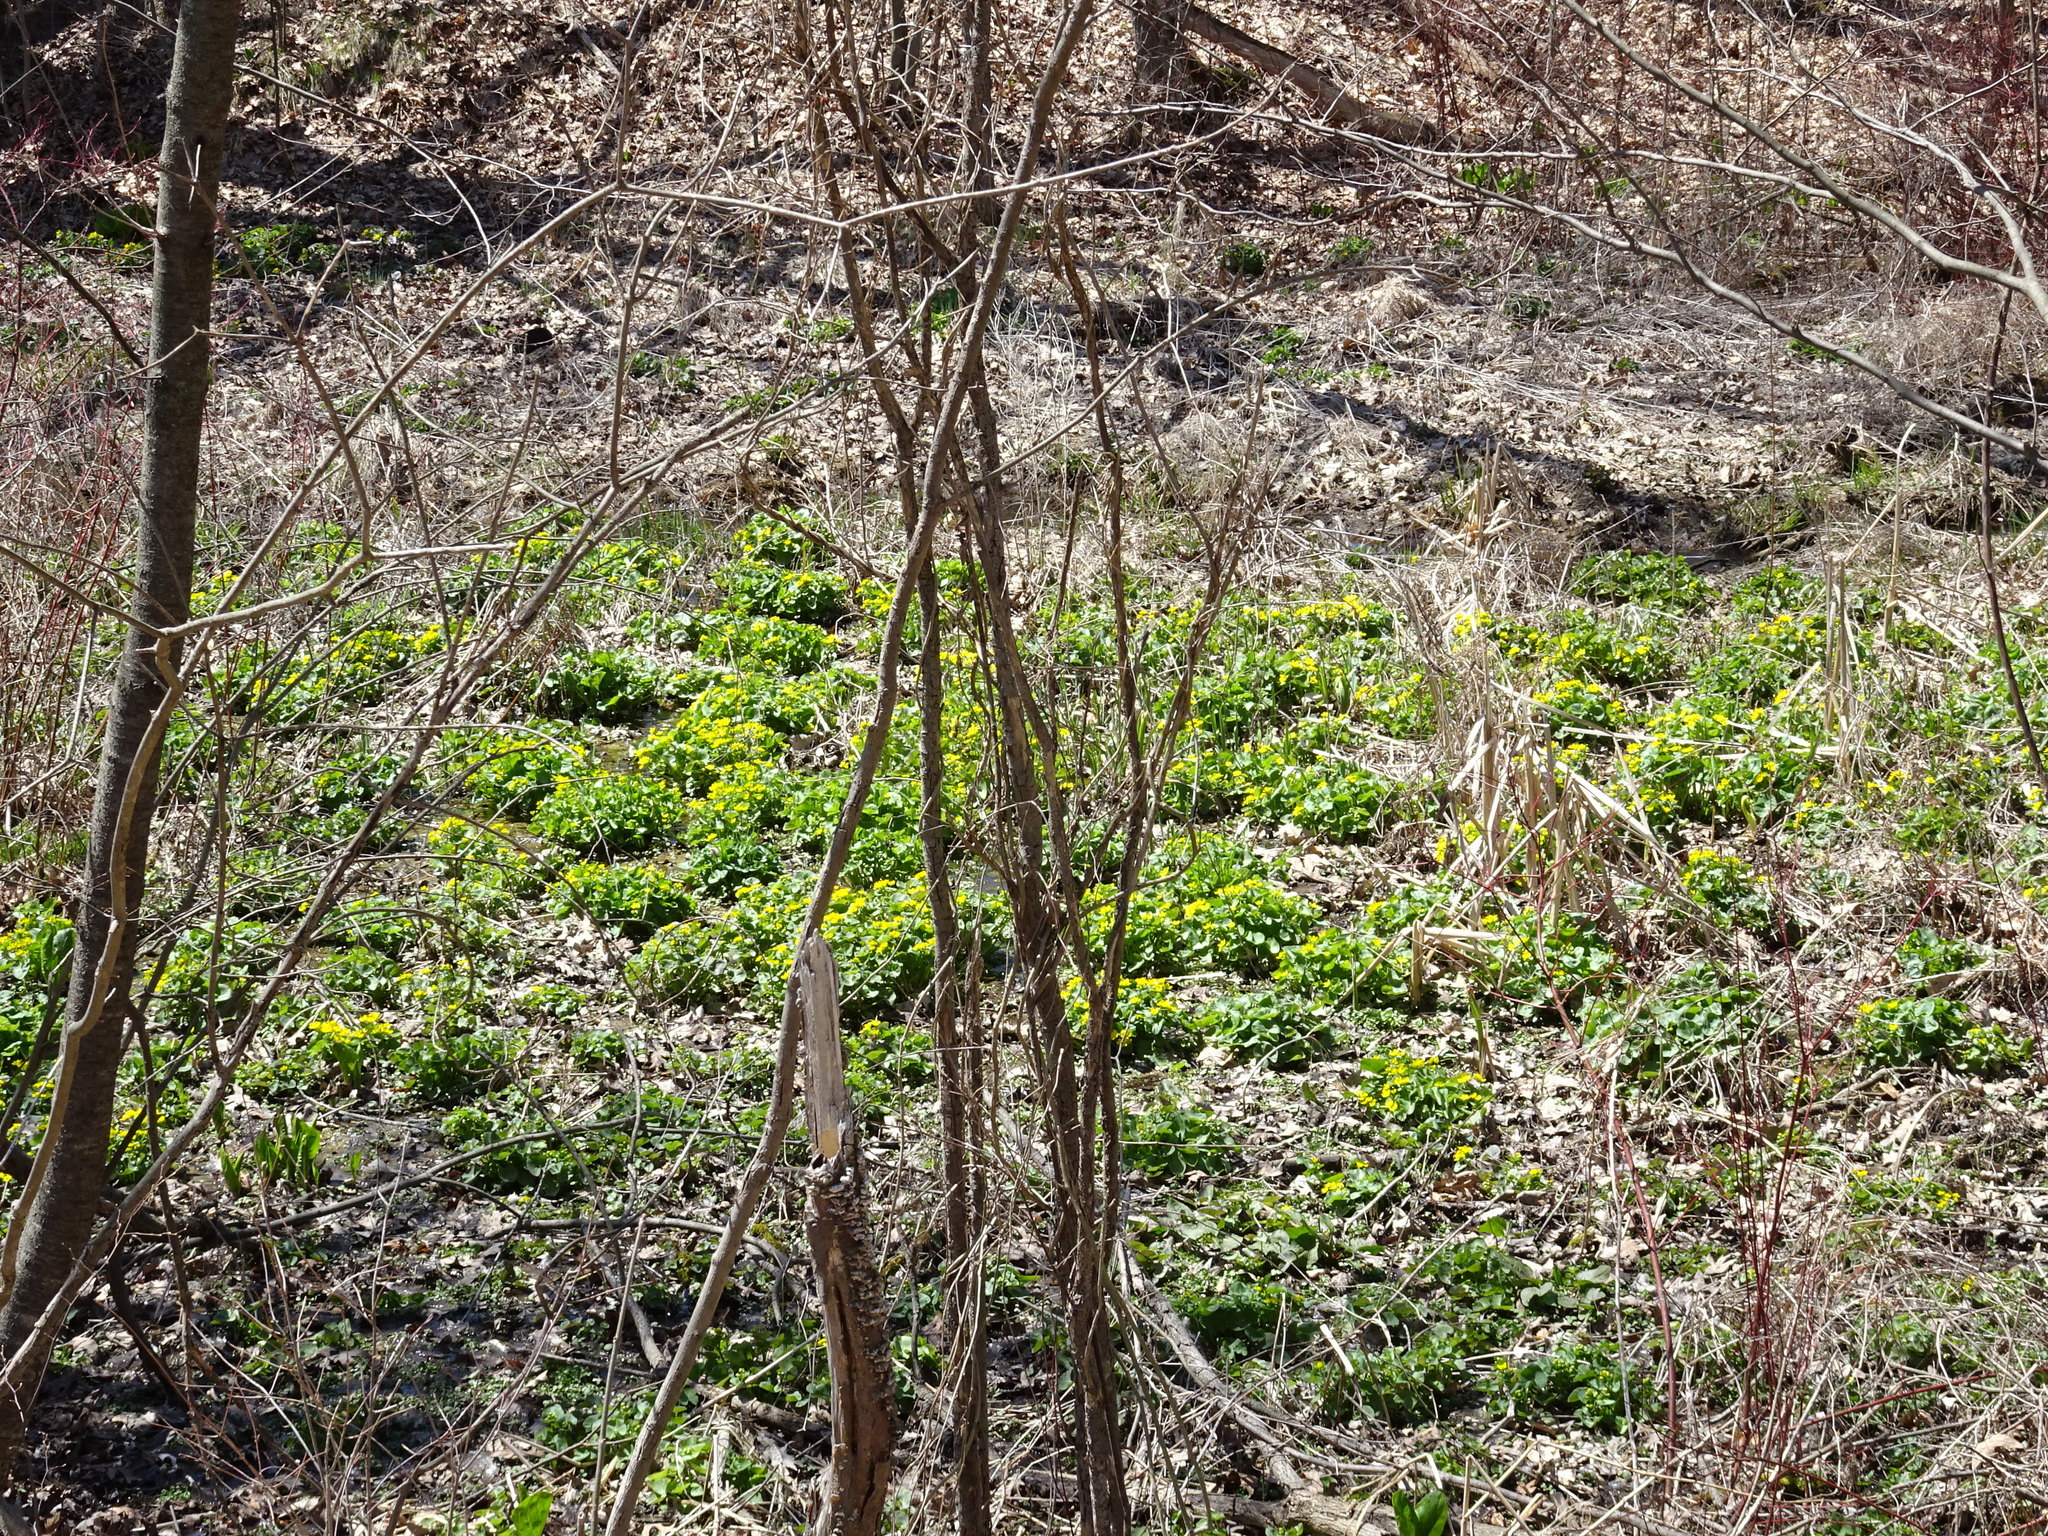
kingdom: Plantae
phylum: Tracheophyta
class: Magnoliopsida
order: Ranunculales
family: Ranunculaceae
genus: Caltha
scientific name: Caltha palustris
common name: Marsh marigold
